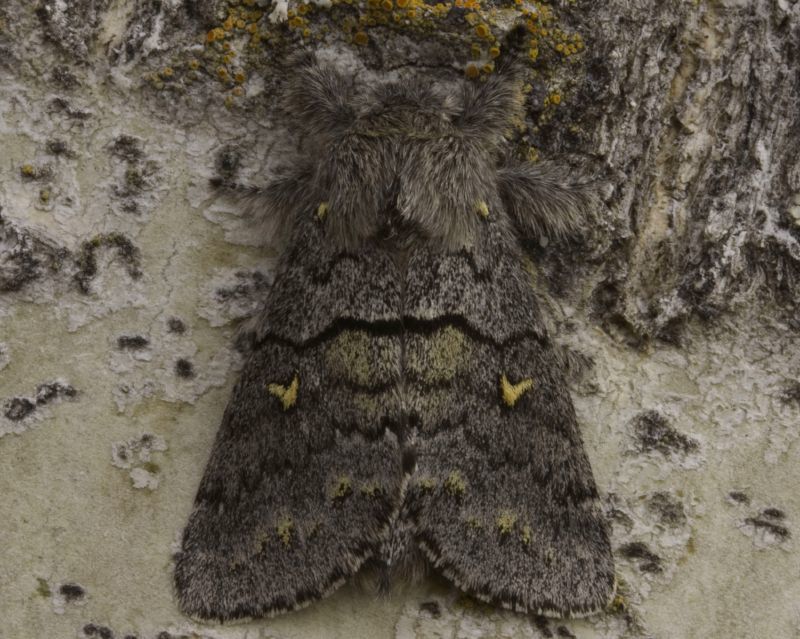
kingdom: Animalia
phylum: Arthropoda
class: Insecta
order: Lepidoptera
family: Notodontidae
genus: Gluphisia
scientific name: Gluphisia avimacula
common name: Four-spotted gluphisia moth
